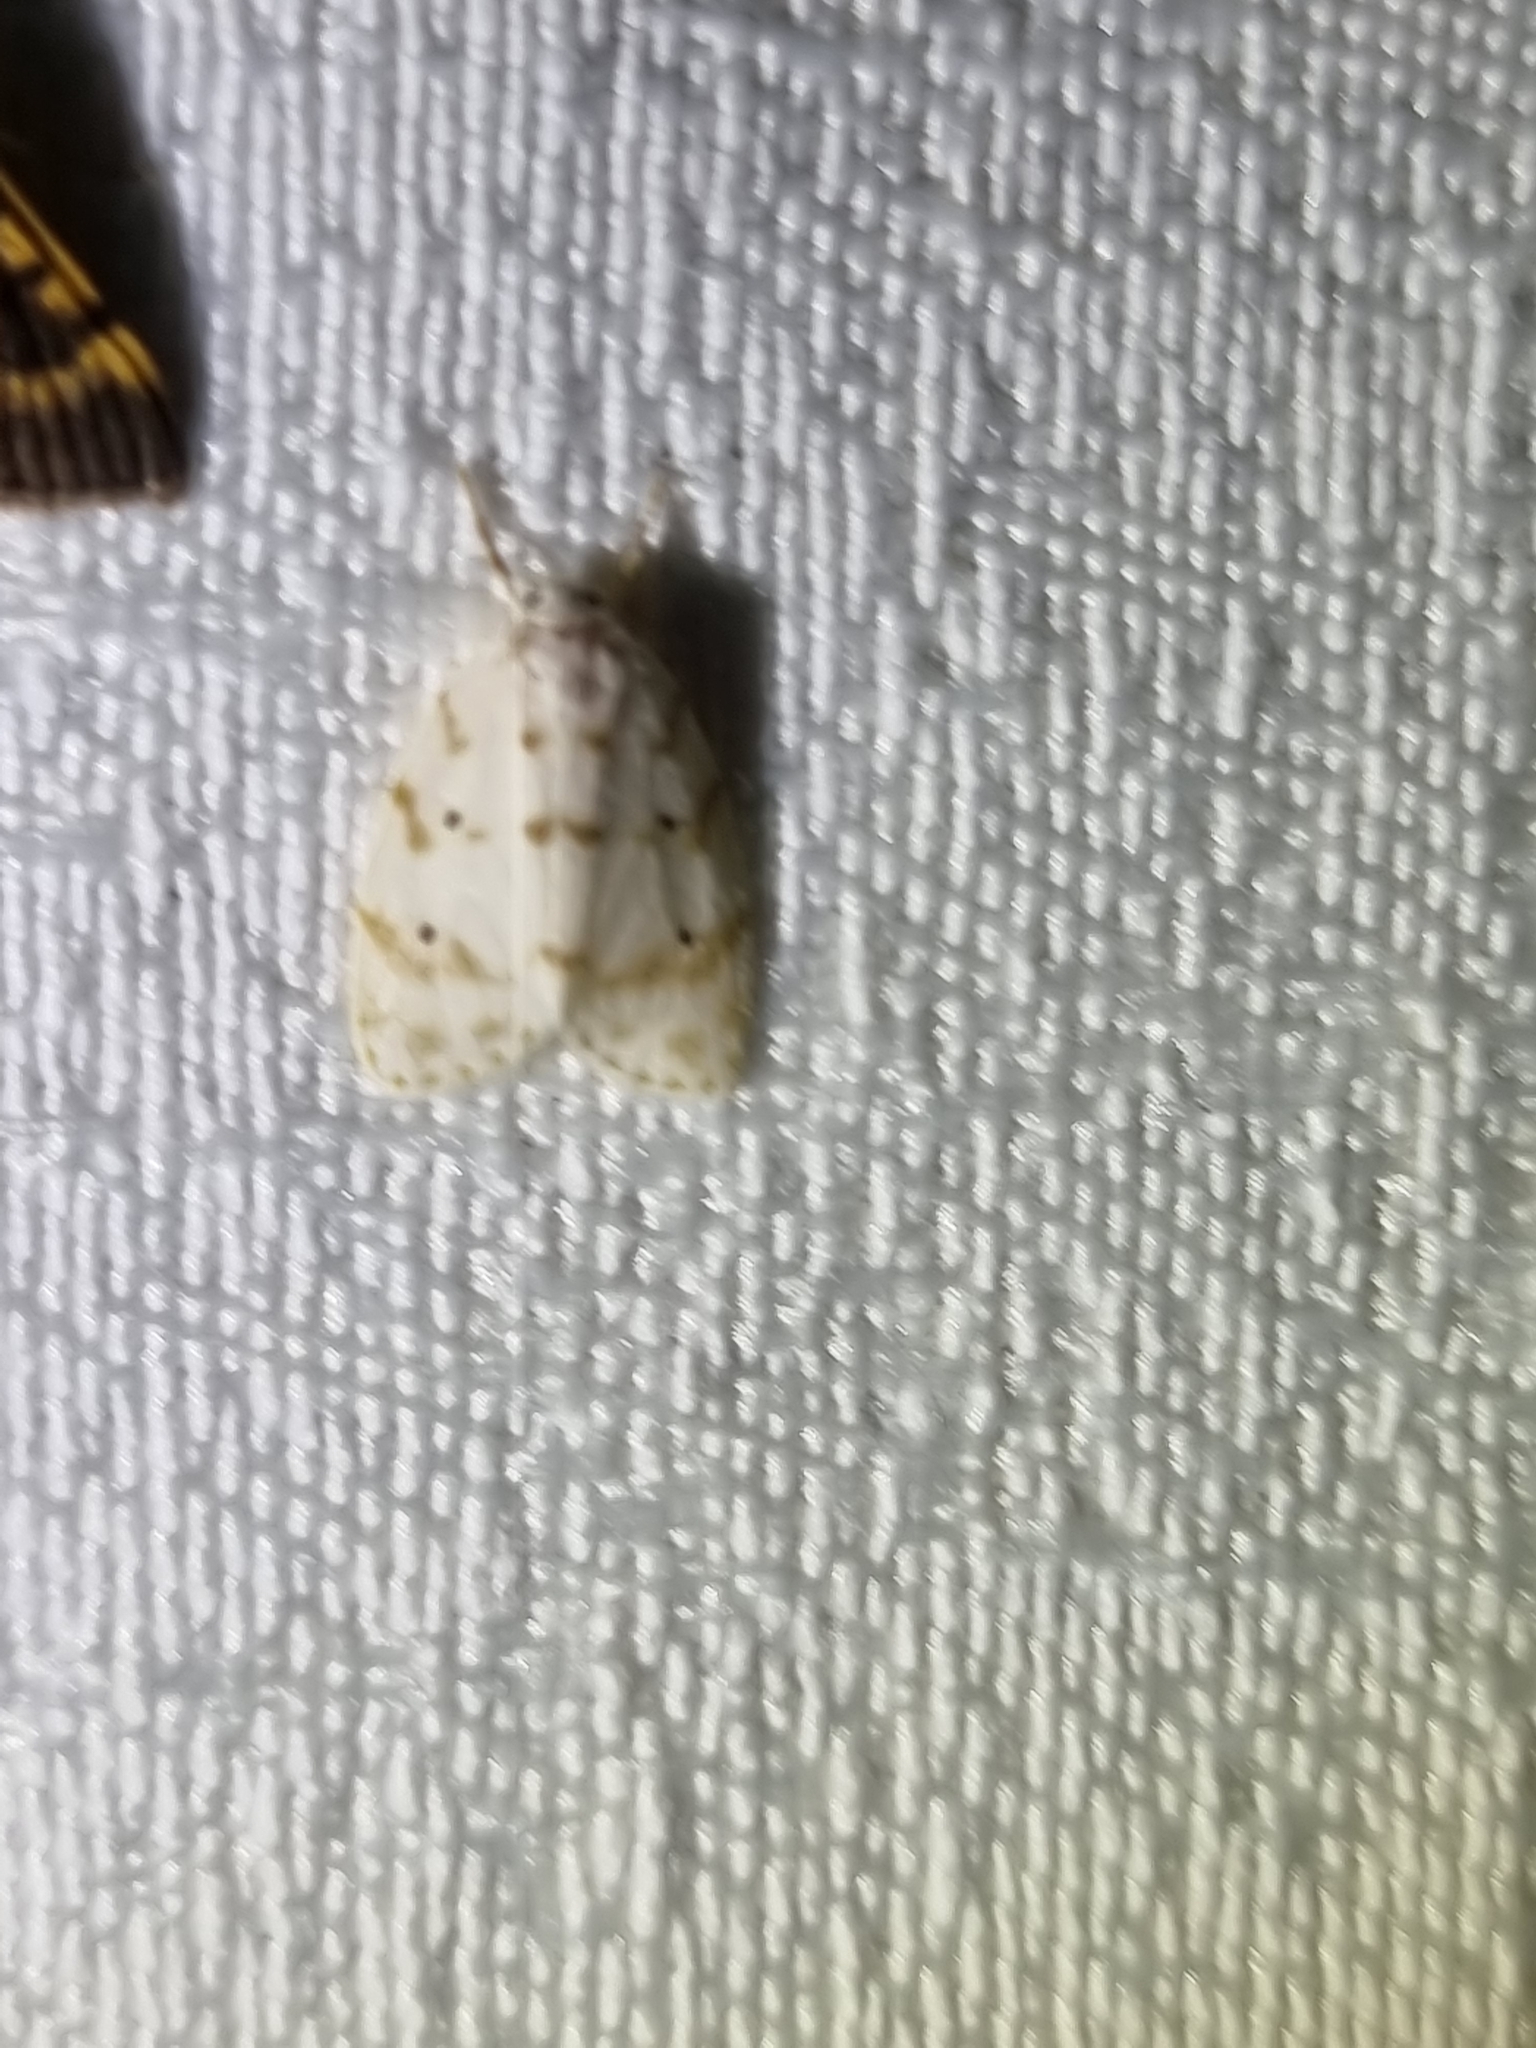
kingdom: Animalia
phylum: Arthropoda
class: Insecta
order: Lepidoptera
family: Erebidae
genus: Schistophleps
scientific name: Schistophleps albida
